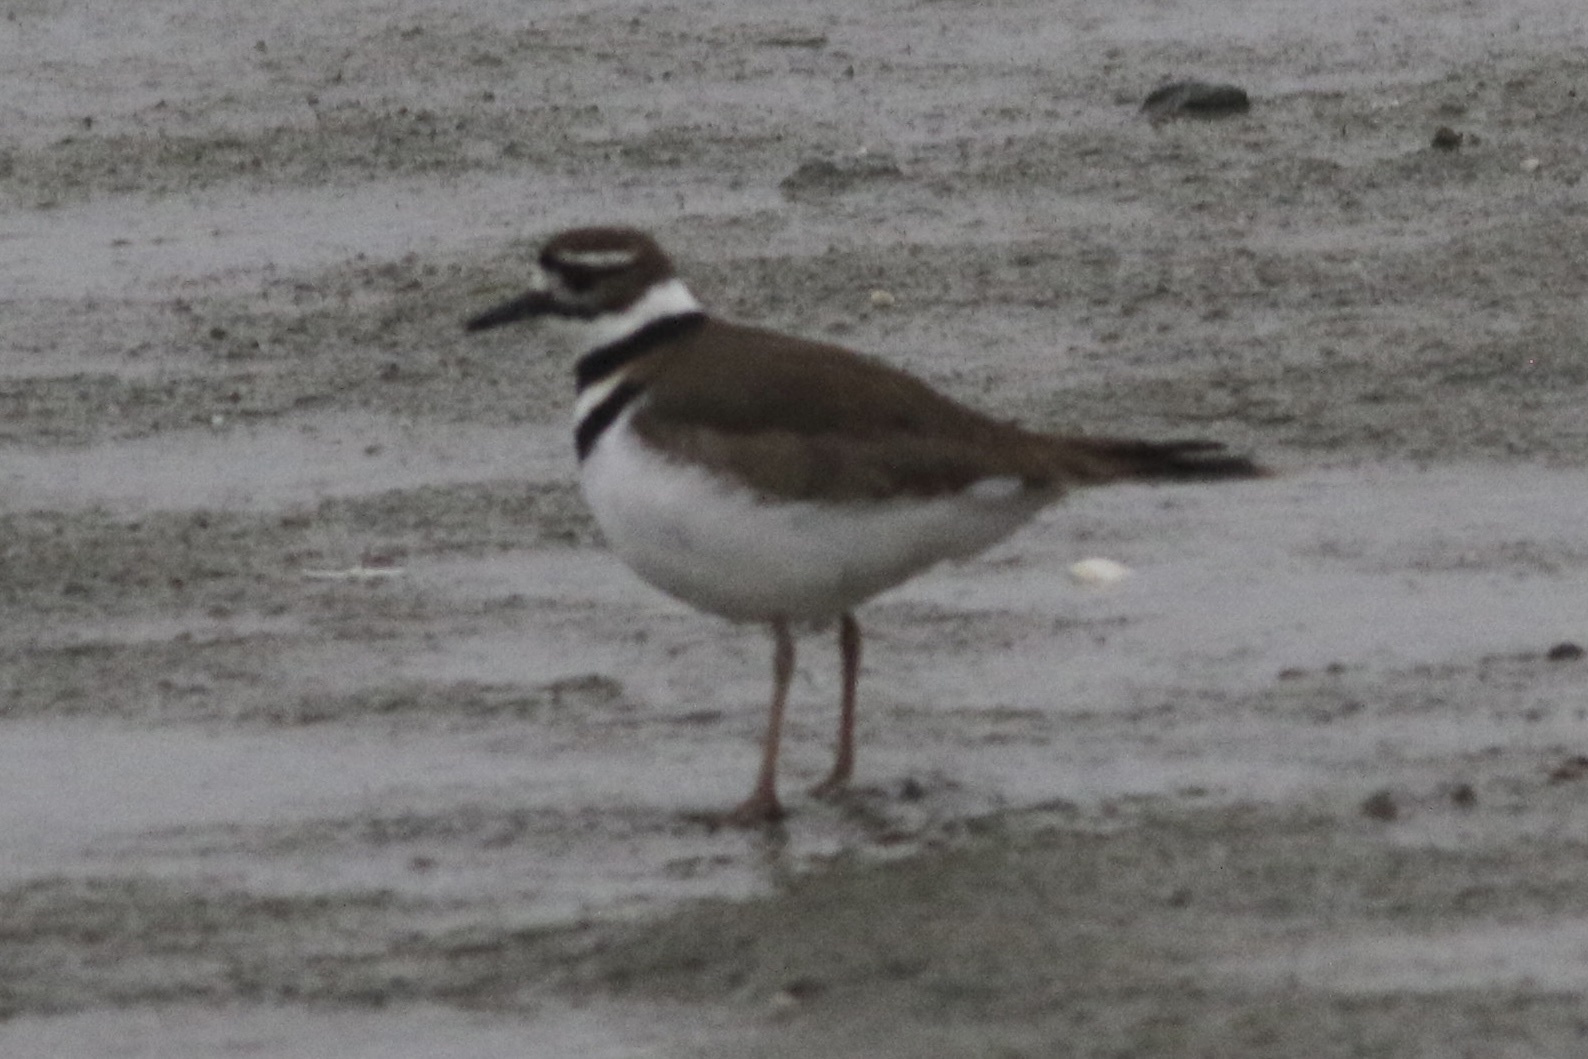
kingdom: Animalia
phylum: Chordata
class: Aves
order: Charadriiformes
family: Charadriidae
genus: Charadrius
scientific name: Charadrius vociferus
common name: Killdeer
